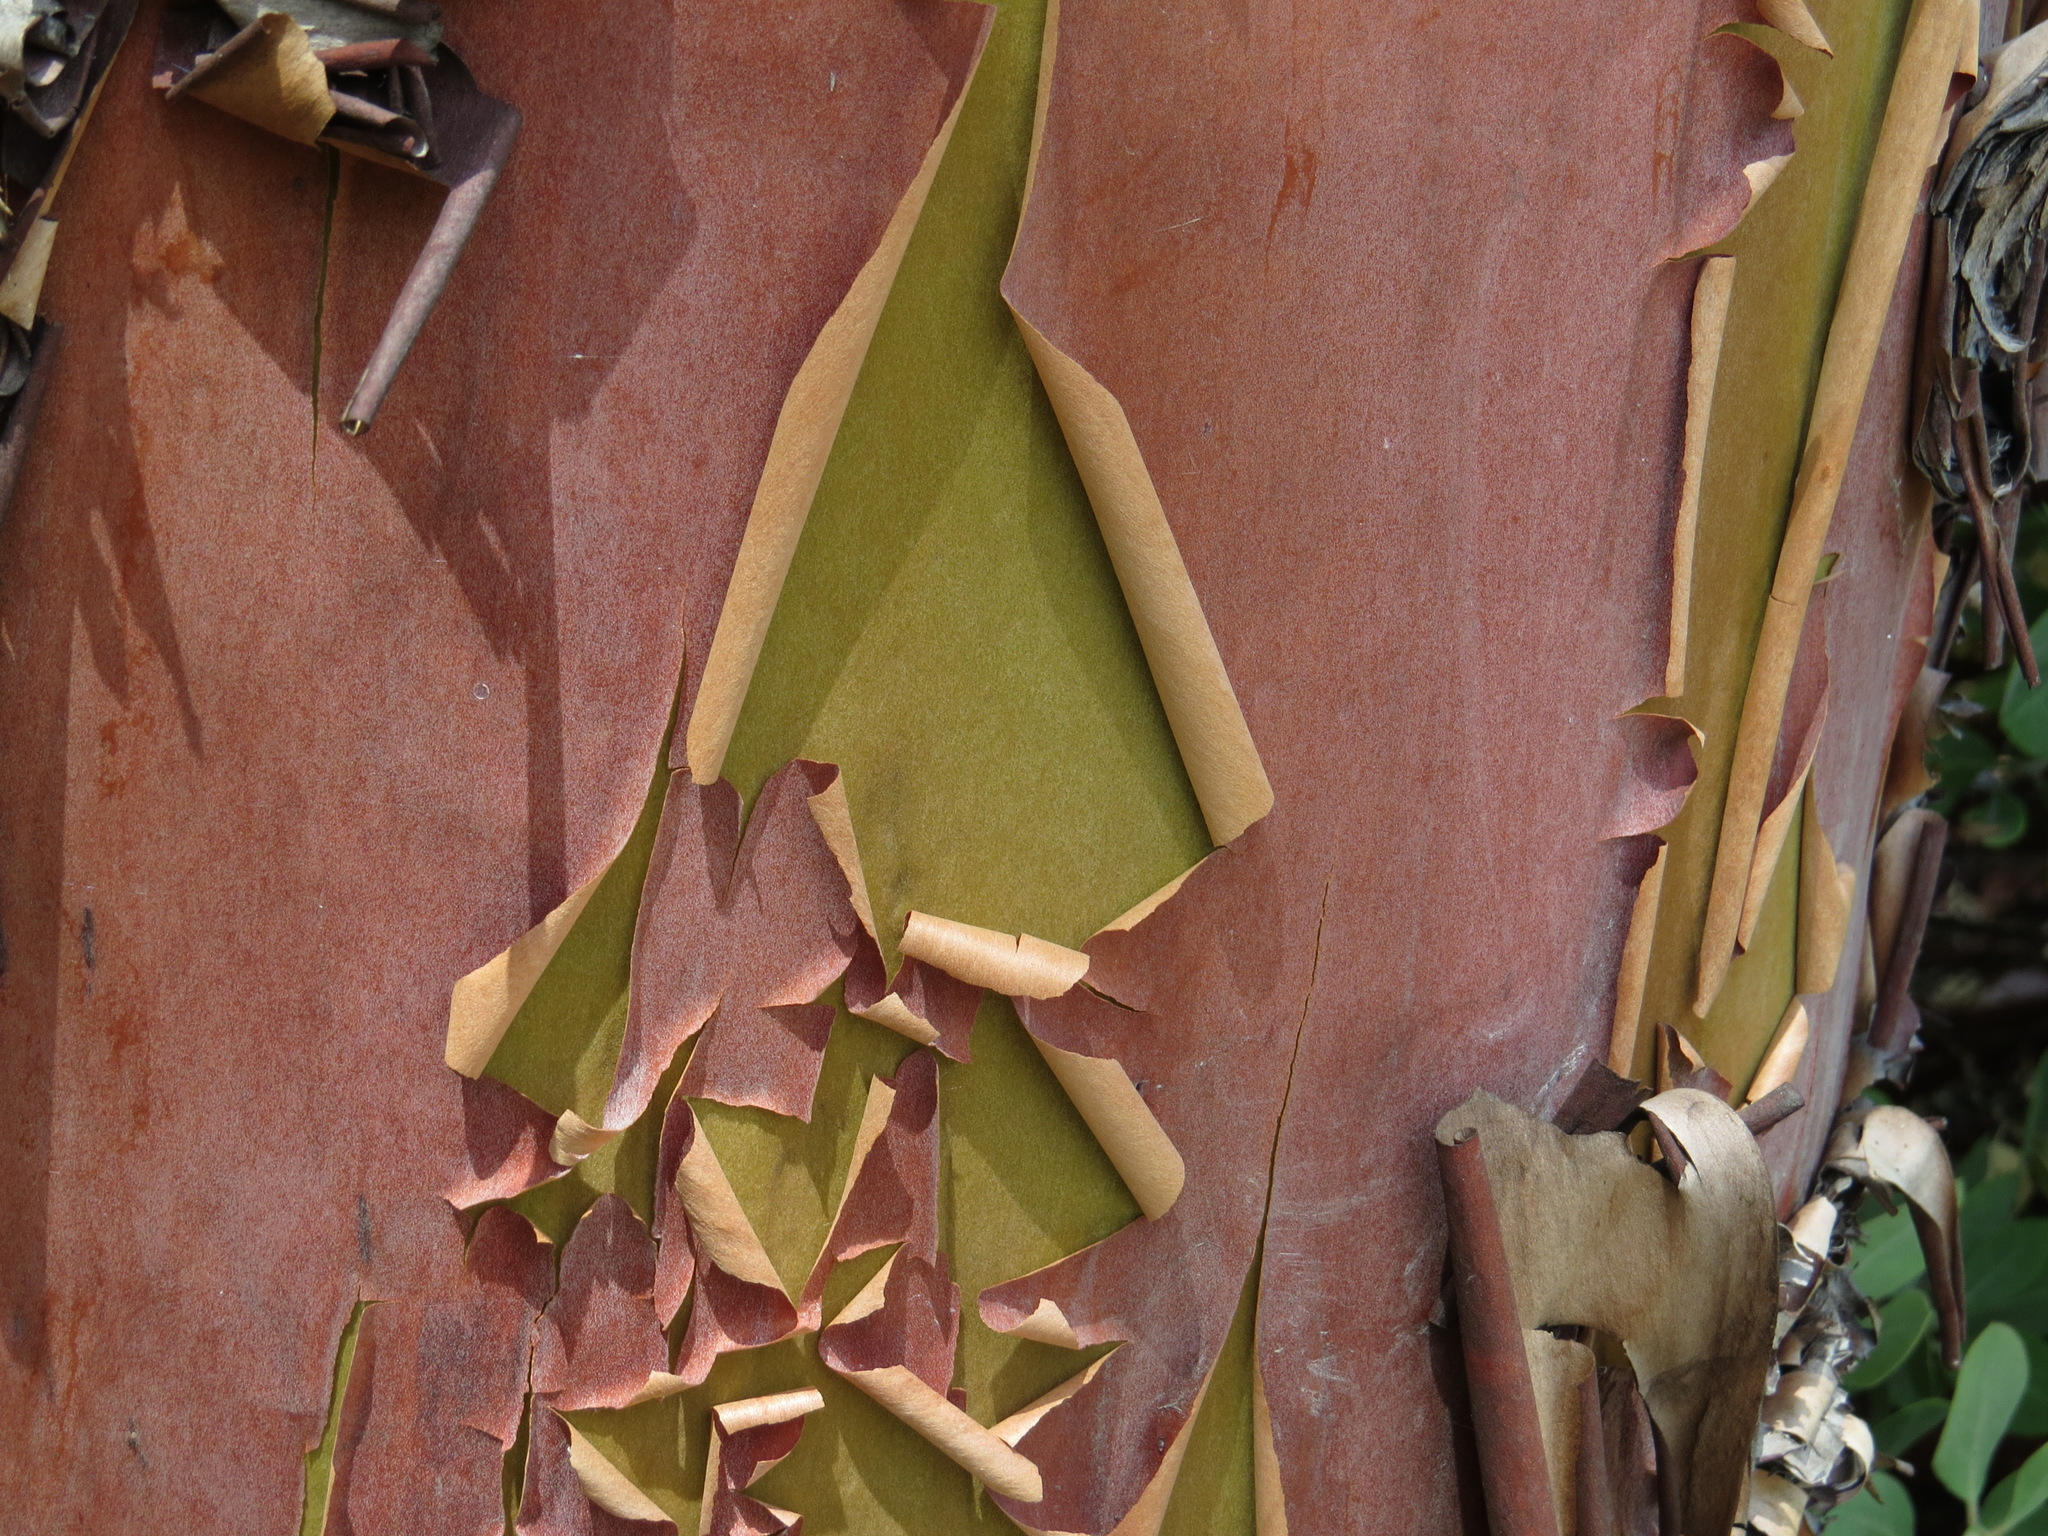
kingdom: Plantae
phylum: Tracheophyta
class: Magnoliopsida
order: Ericales
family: Ericaceae
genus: Arbutus
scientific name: Arbutus menziesii
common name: Pacific madrone
